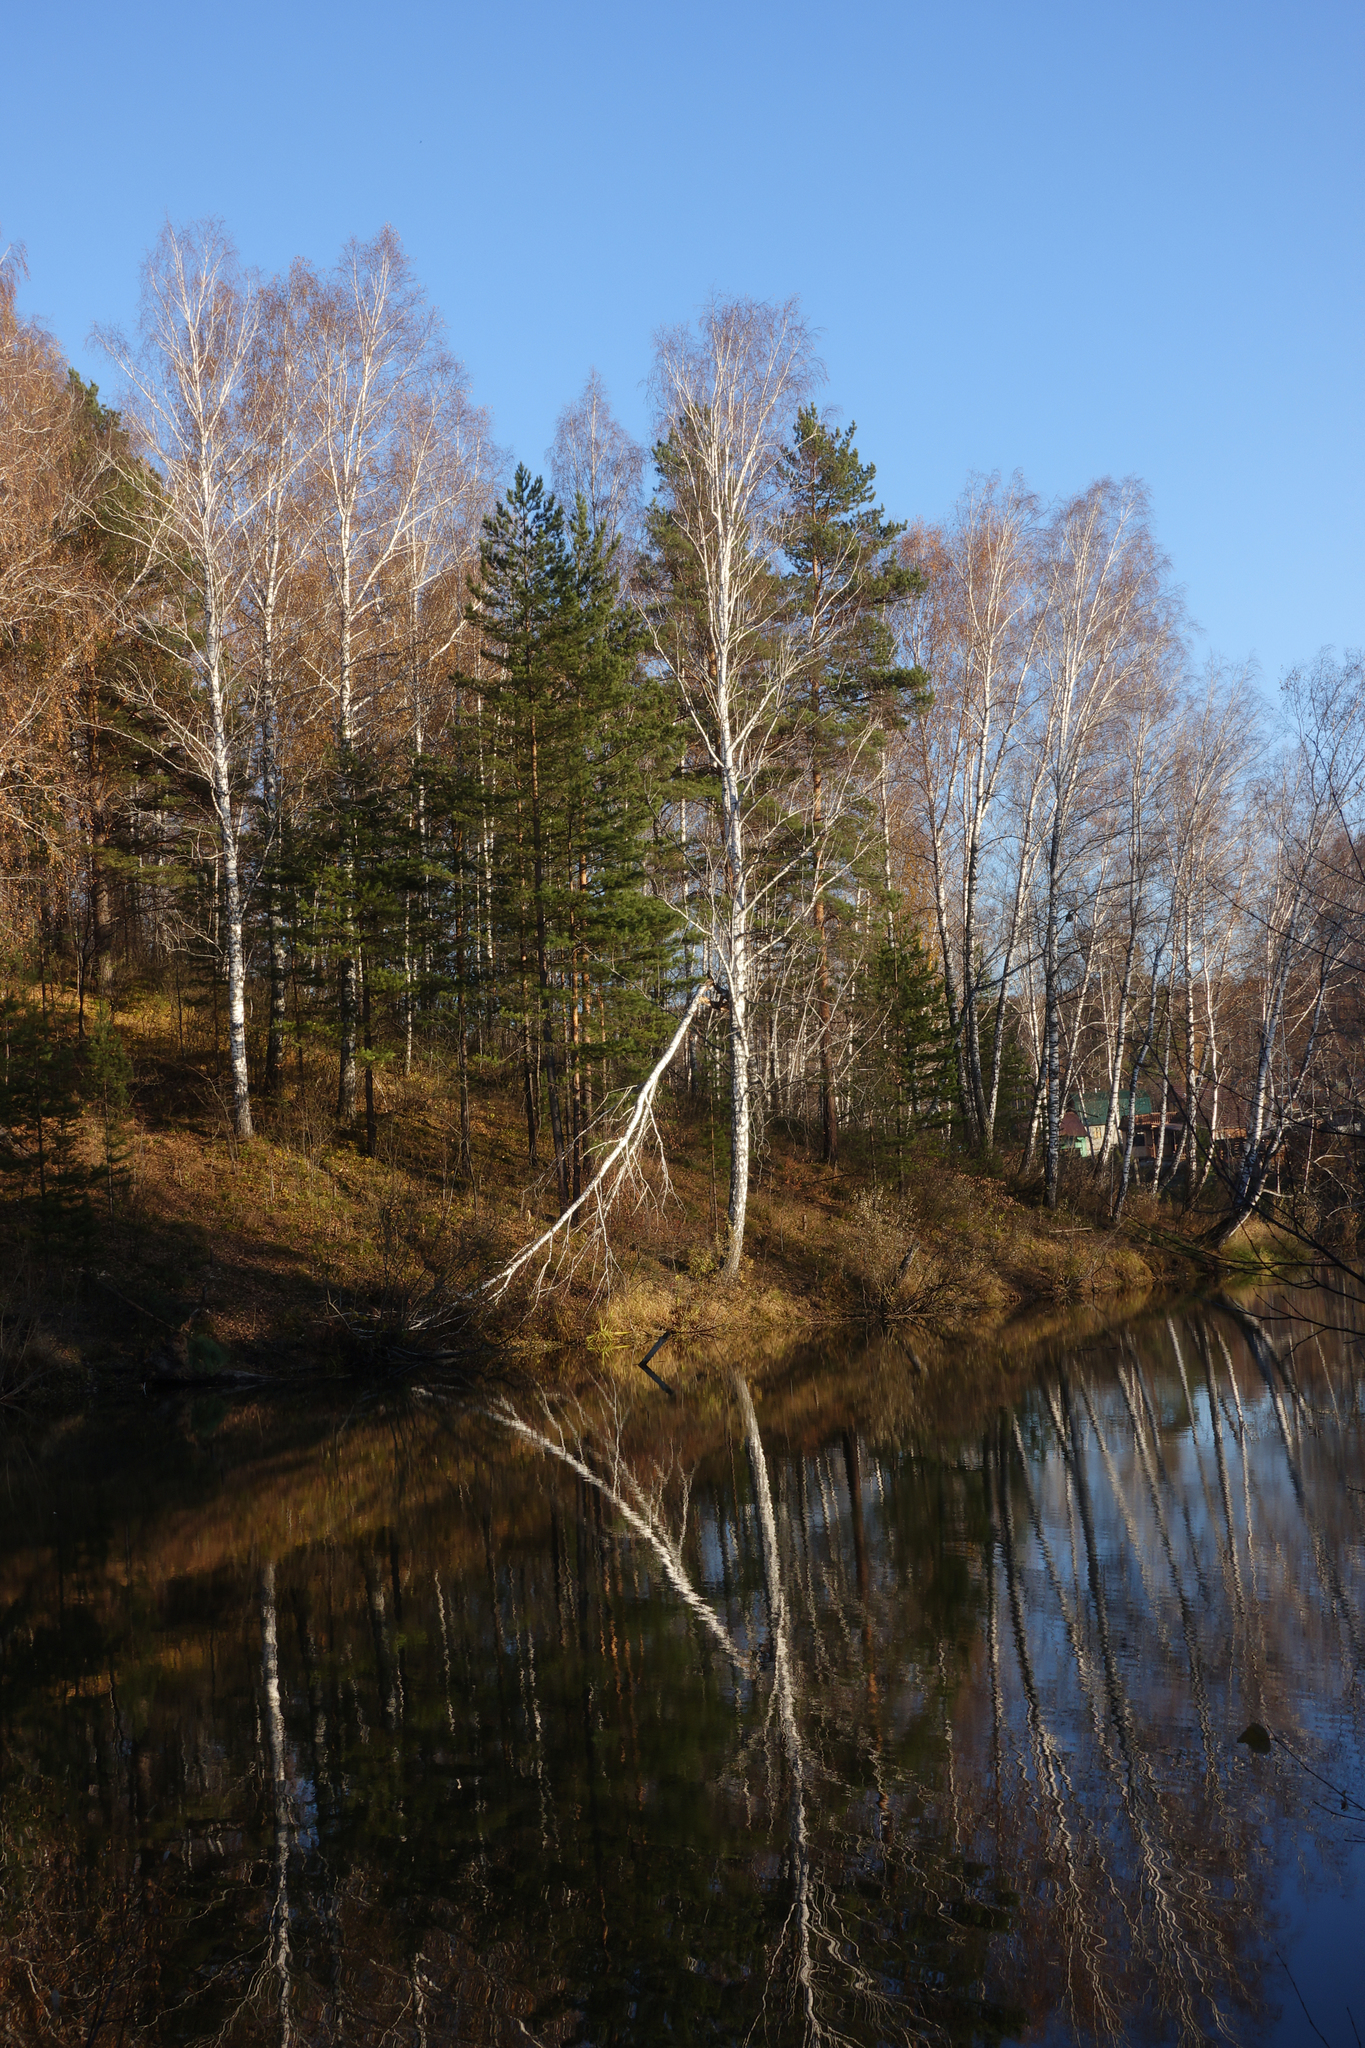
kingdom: Plantae
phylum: Tracheophyta
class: Magnoliopsida
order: Fagales
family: Betulaceae
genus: Betula
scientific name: Betula pendula
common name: Silver birch
